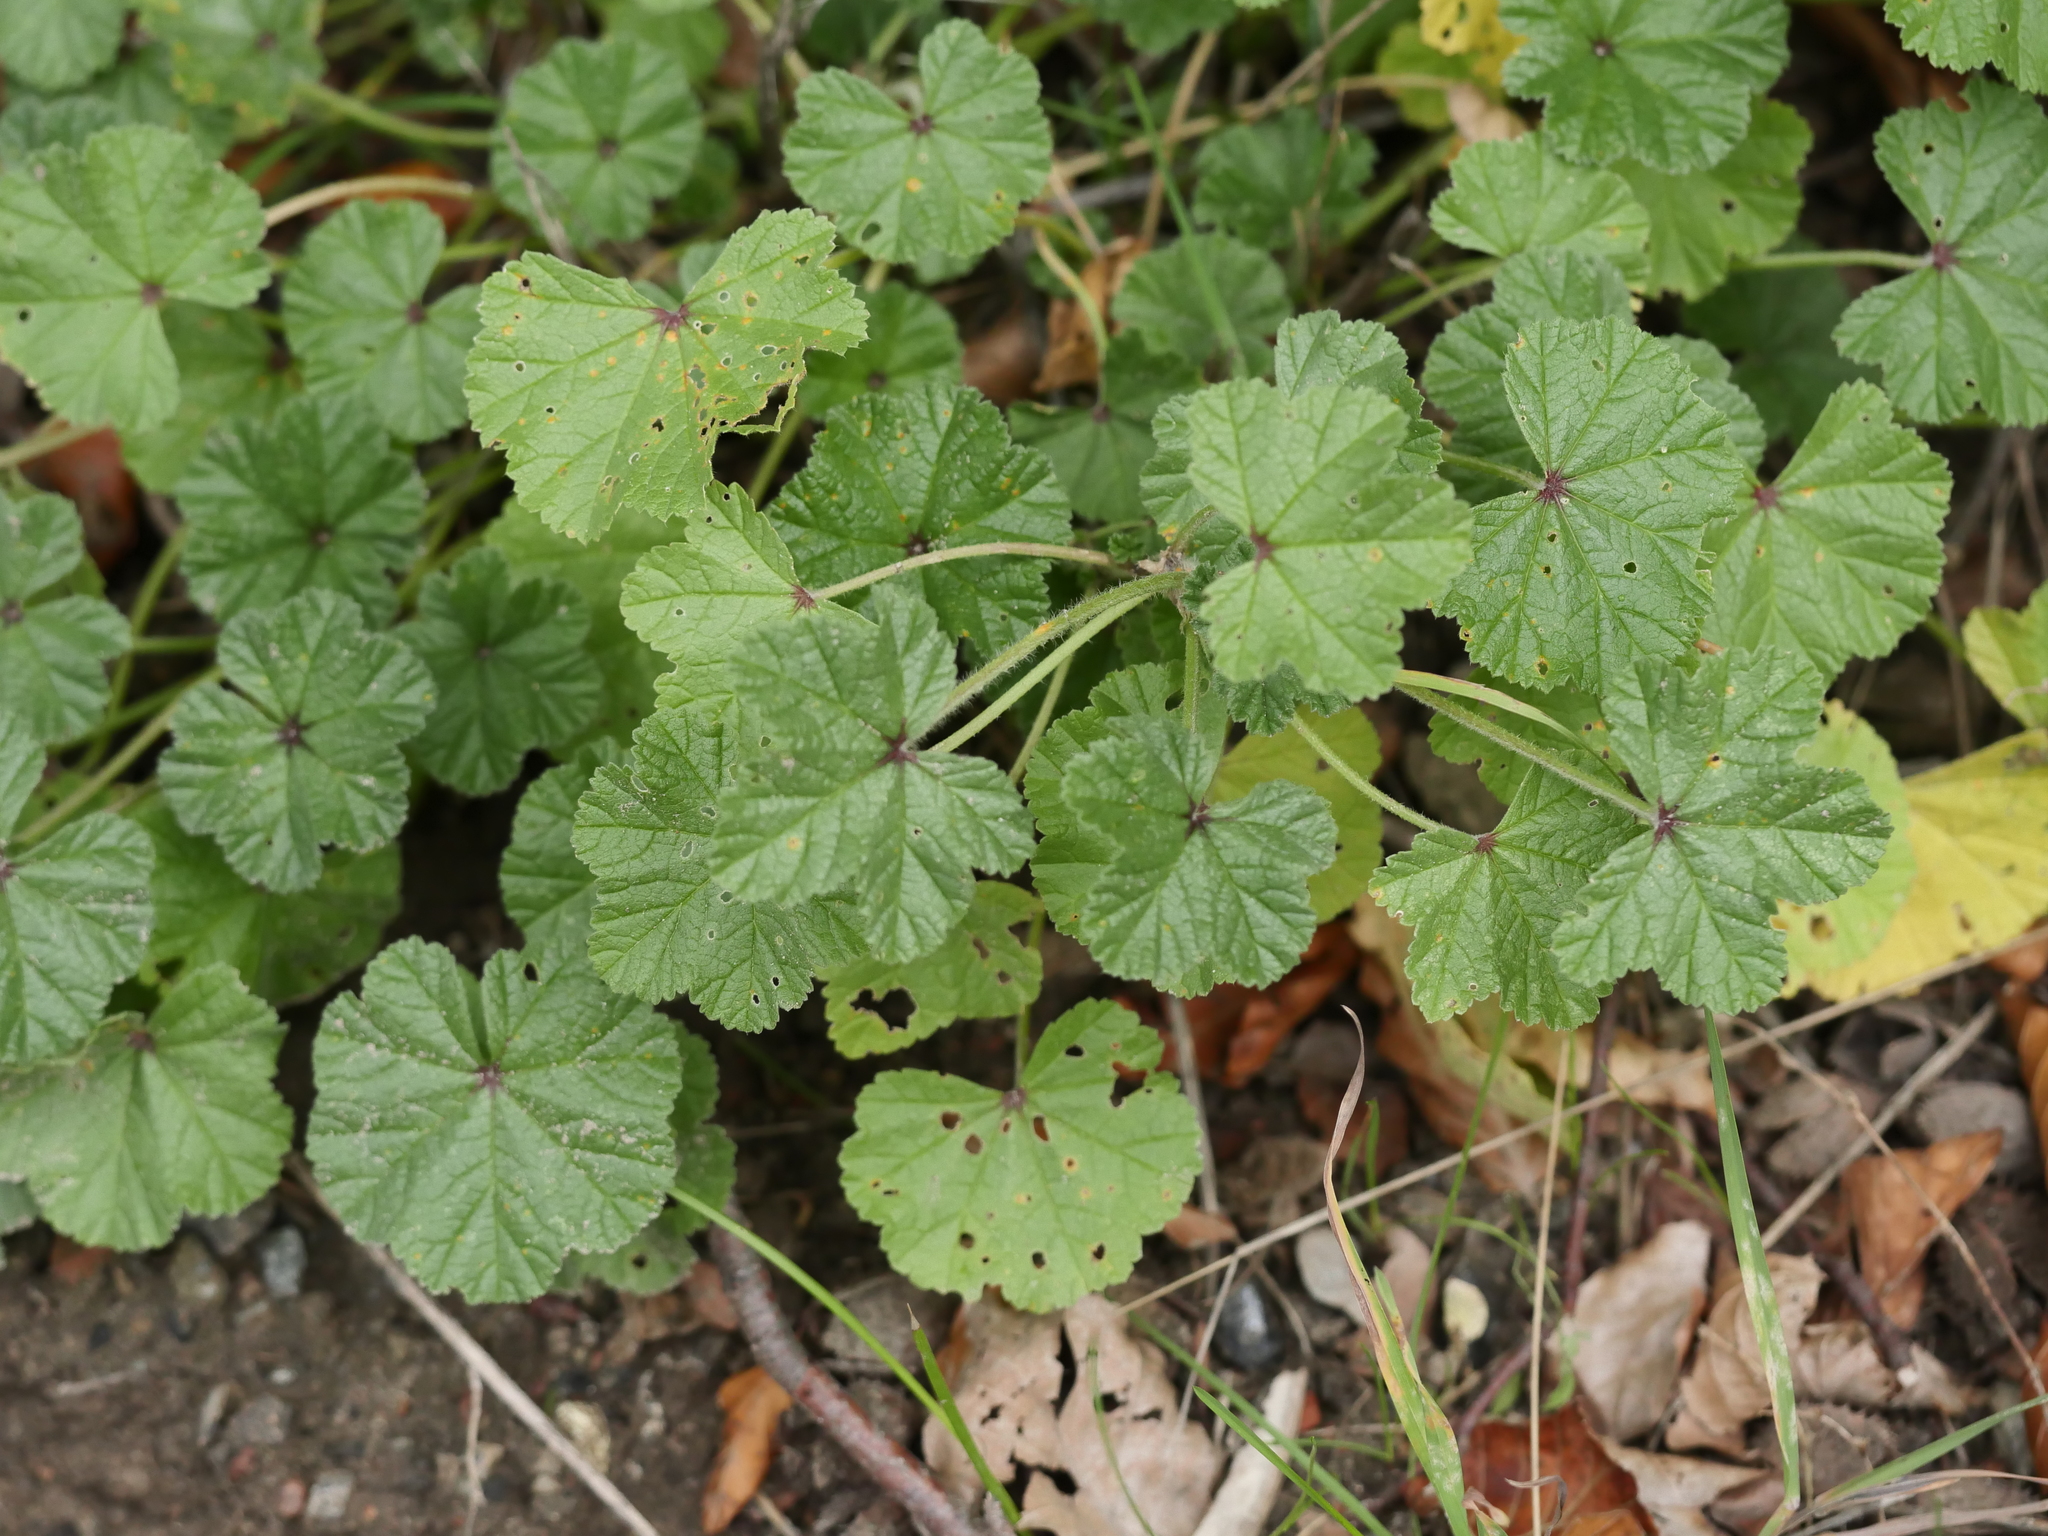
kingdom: Plantae
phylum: Tracheophyta
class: Magnoliopsida
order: Malvales
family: Malvaceae
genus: Malva
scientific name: Malva sylvestris
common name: Common mallow
